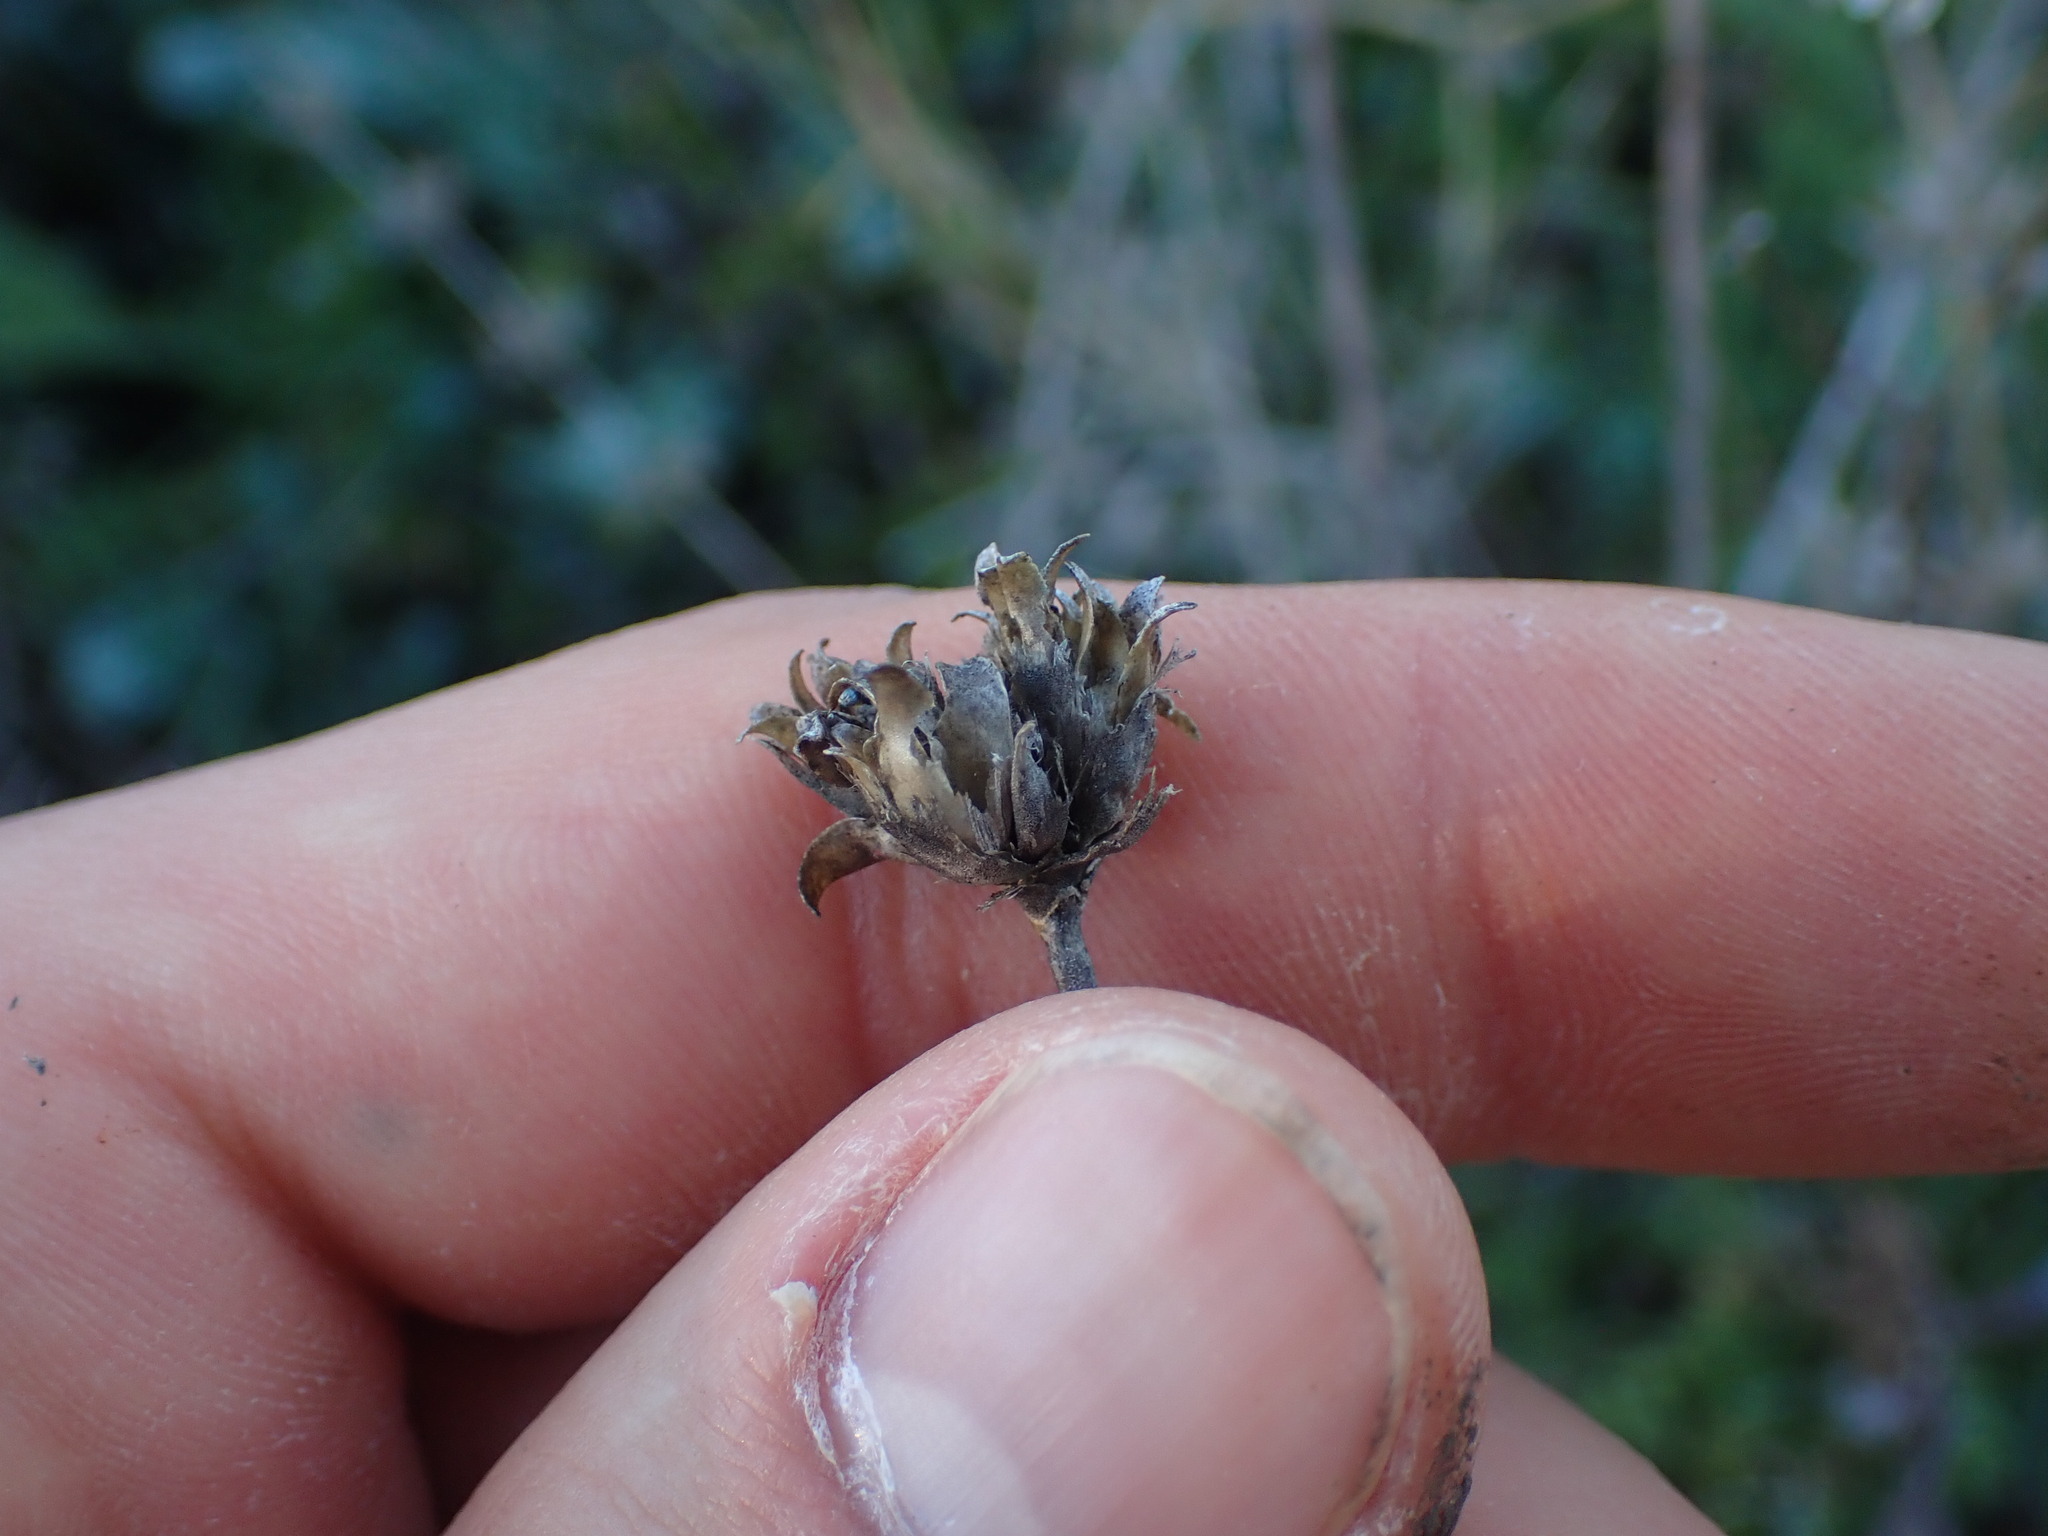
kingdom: Plantae
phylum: Tracheophyta
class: Magnoliopsida
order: Caryophyllales
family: Caryophyllaceae
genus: Petrorhagia
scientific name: Petrorhagia prolifera
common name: Proliferous pink
